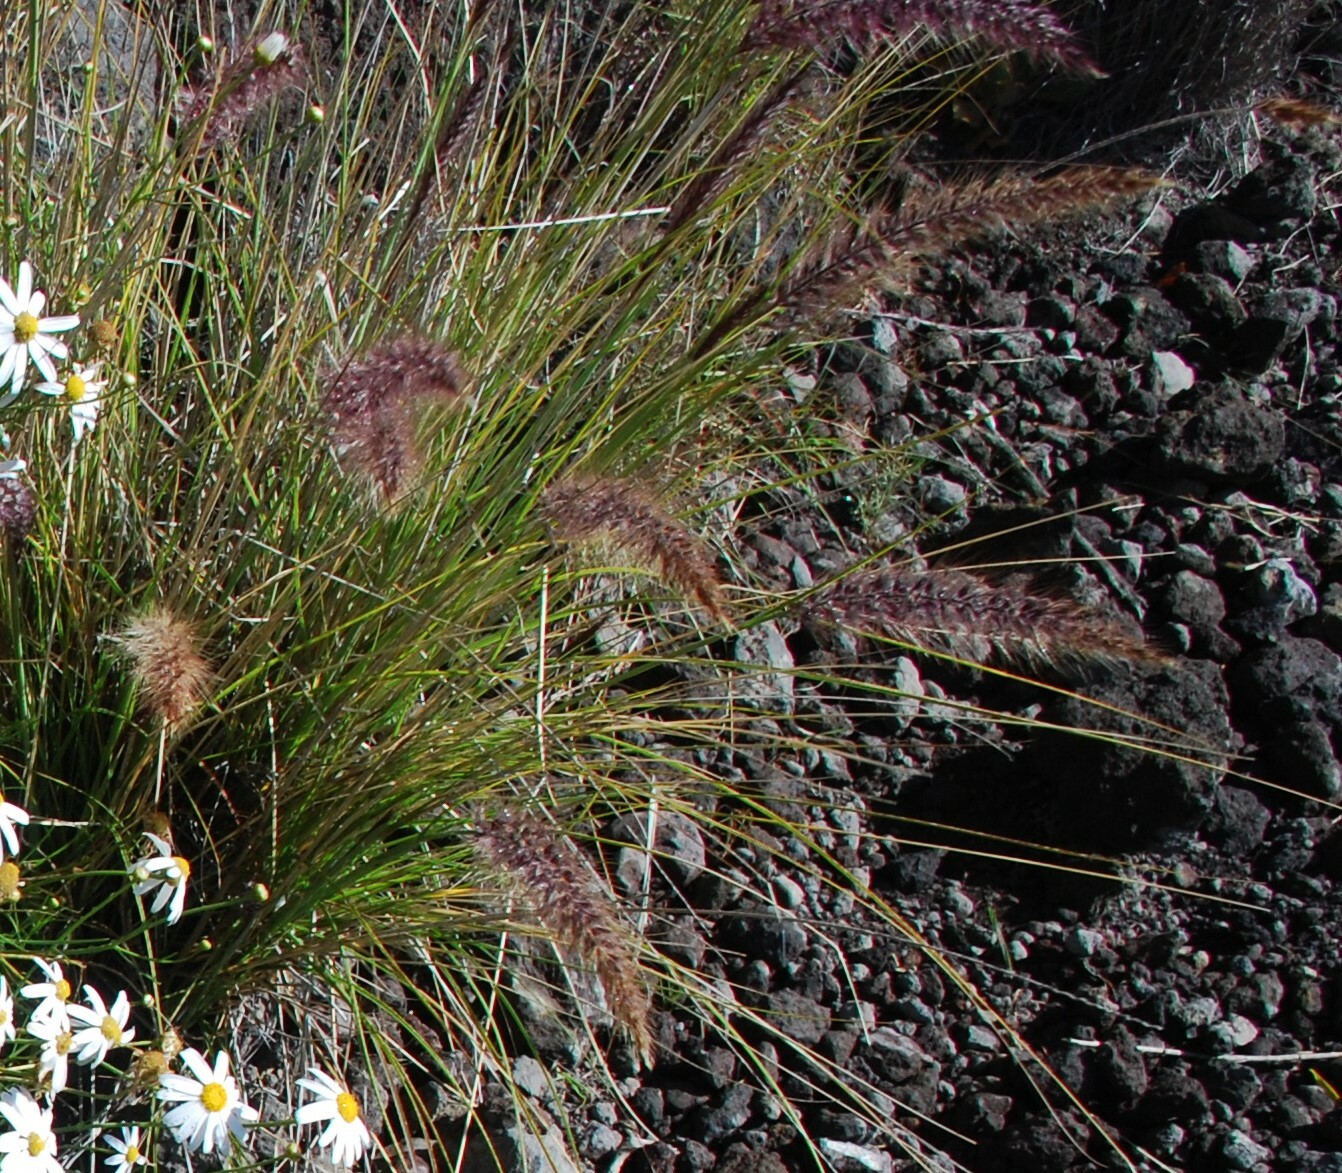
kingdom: Plantae
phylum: Tracheophyta
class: Liliopsida
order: Poales
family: Poaceae
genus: Cenchrus
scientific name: Cenchrus setaceus
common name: Crimson fountaingrass
